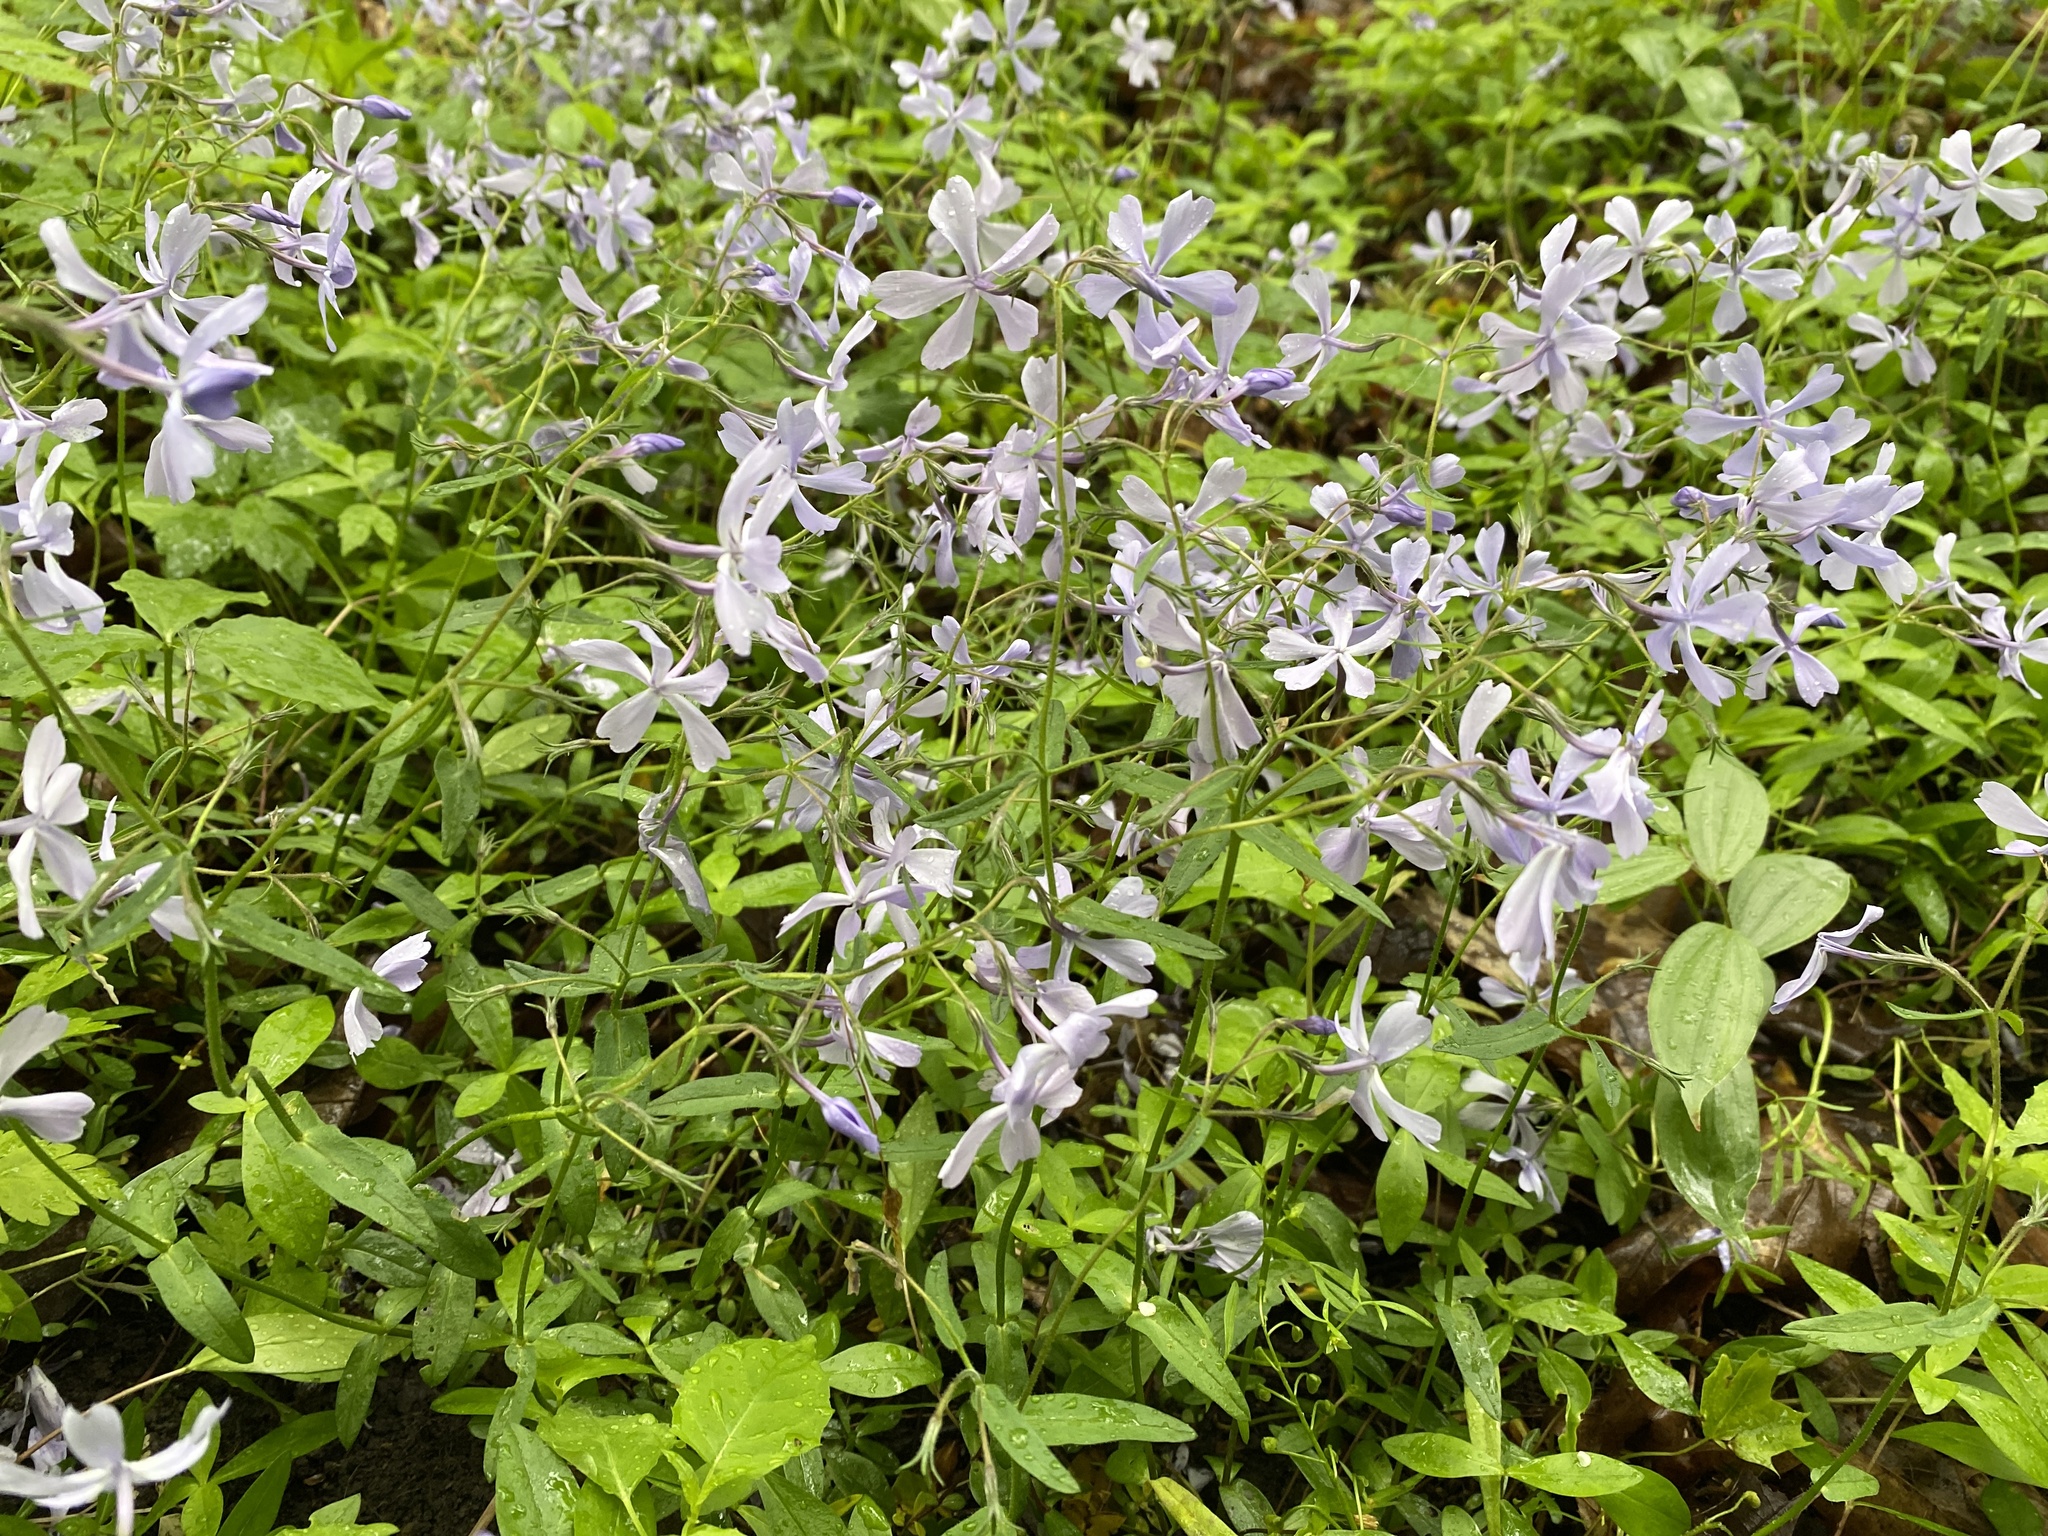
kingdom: Plantae
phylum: Tracheophyta
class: Magnoliopsida
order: Ericales
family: Polemoniaceae
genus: Phlox
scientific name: Phlox divaricata
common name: Blue phlox
